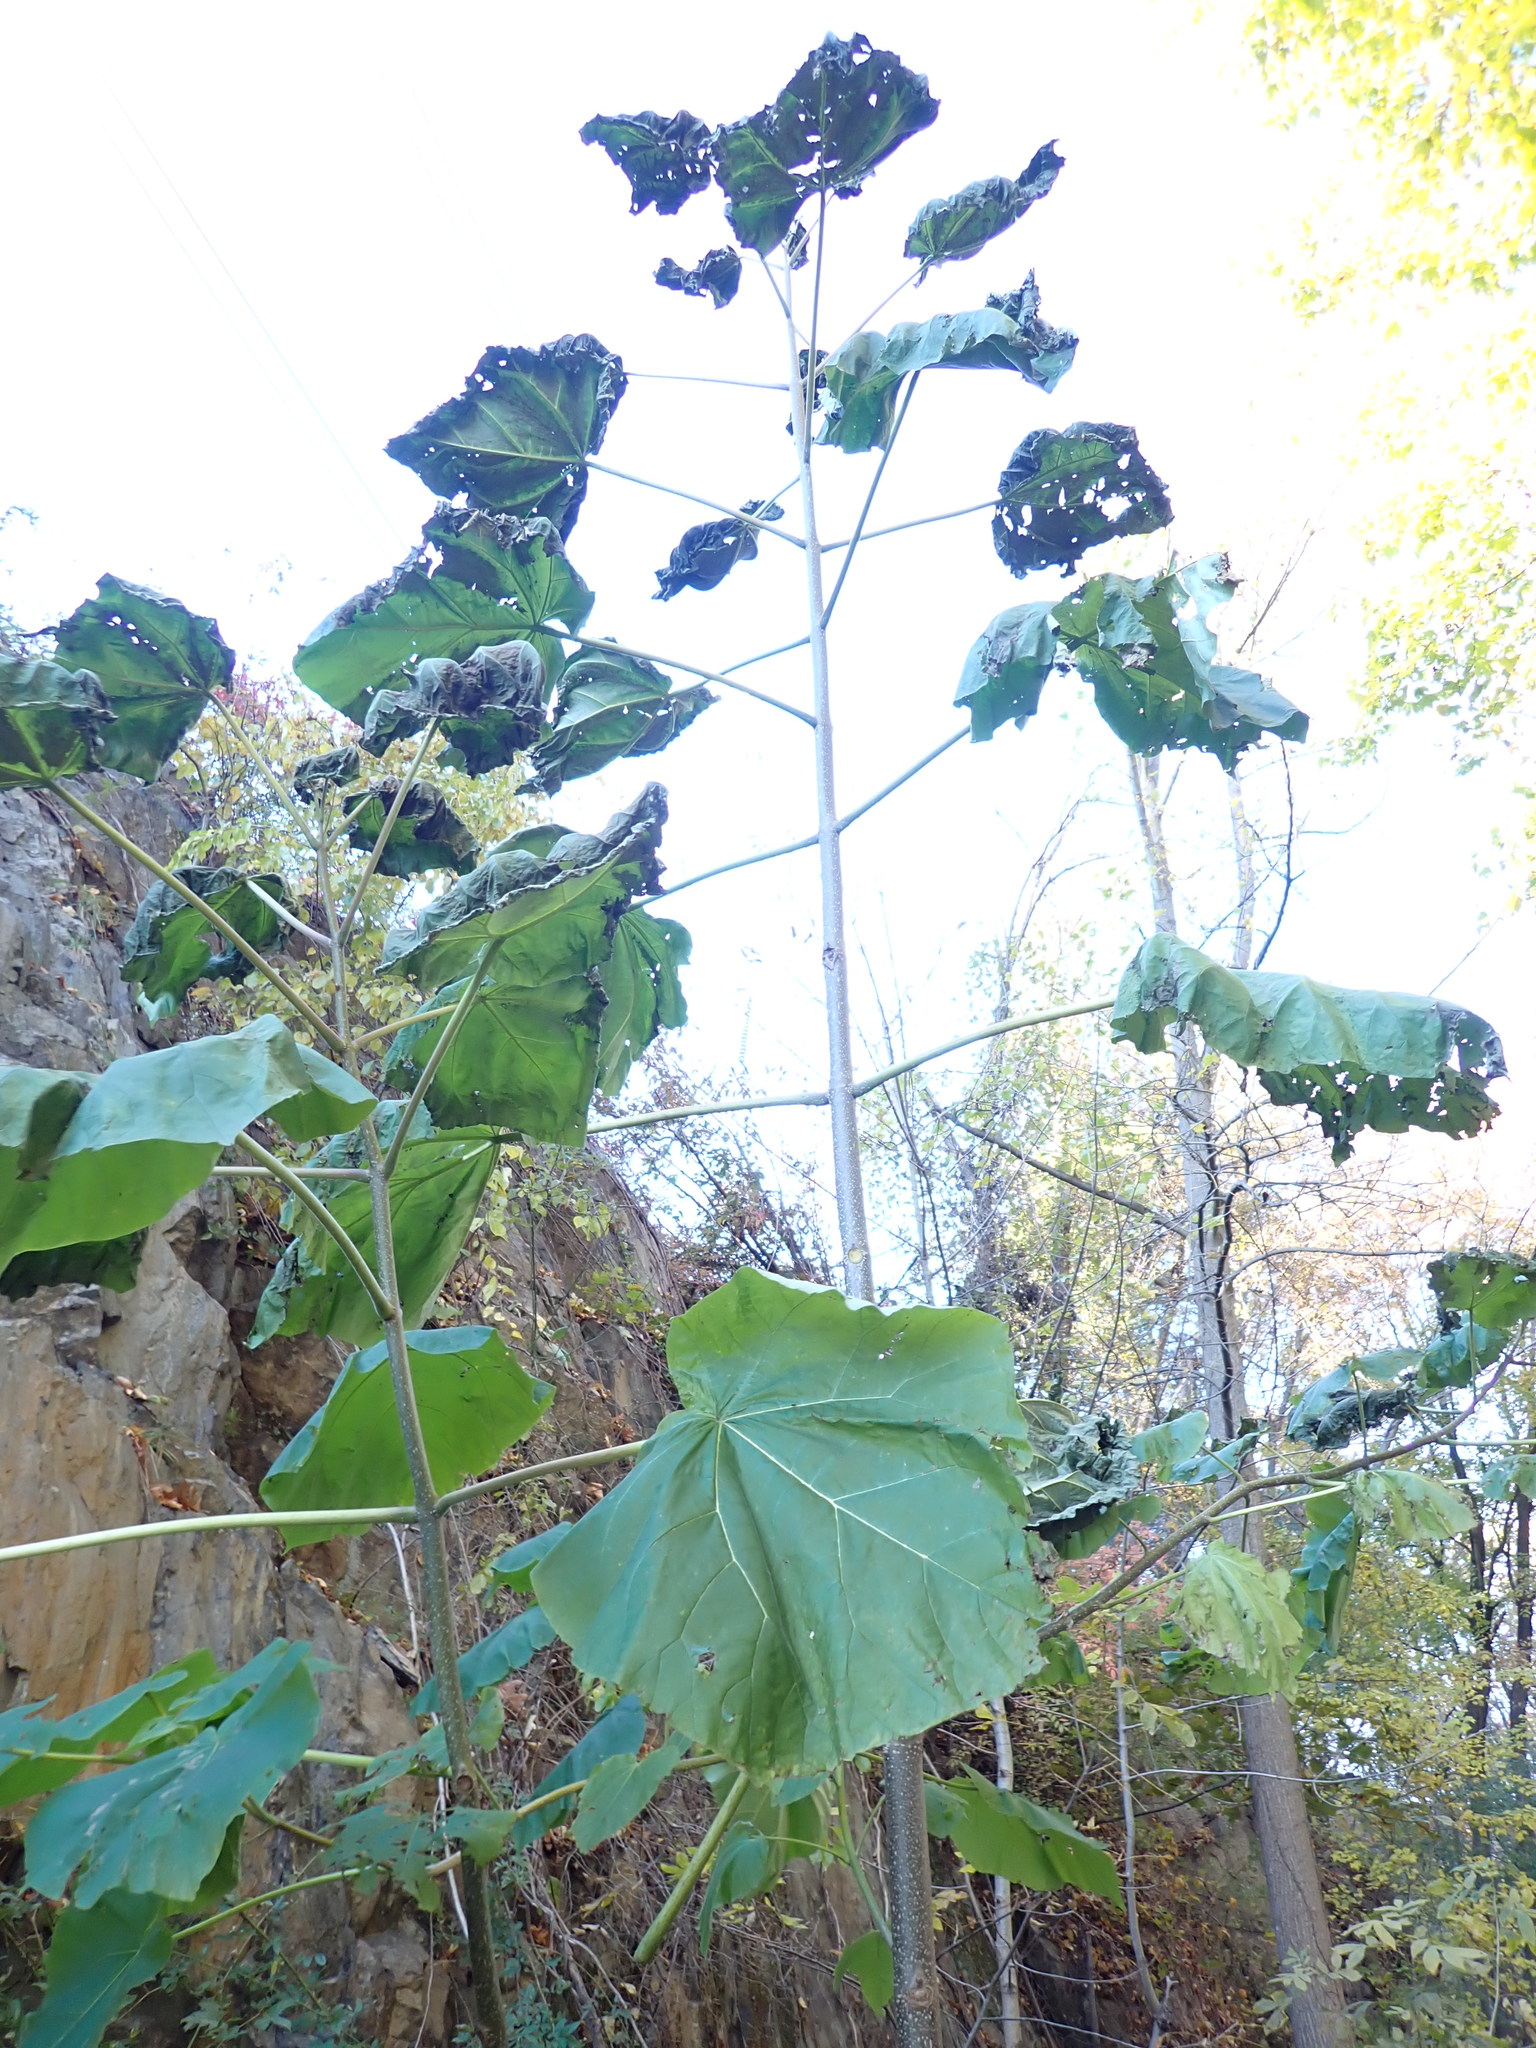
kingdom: Plantae
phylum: Tracheophyta
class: Magnoliopsida
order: Lamiales
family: Paulowniaceae
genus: Paulownia
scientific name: Paulownia tomentosa
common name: Foxglove-tree
